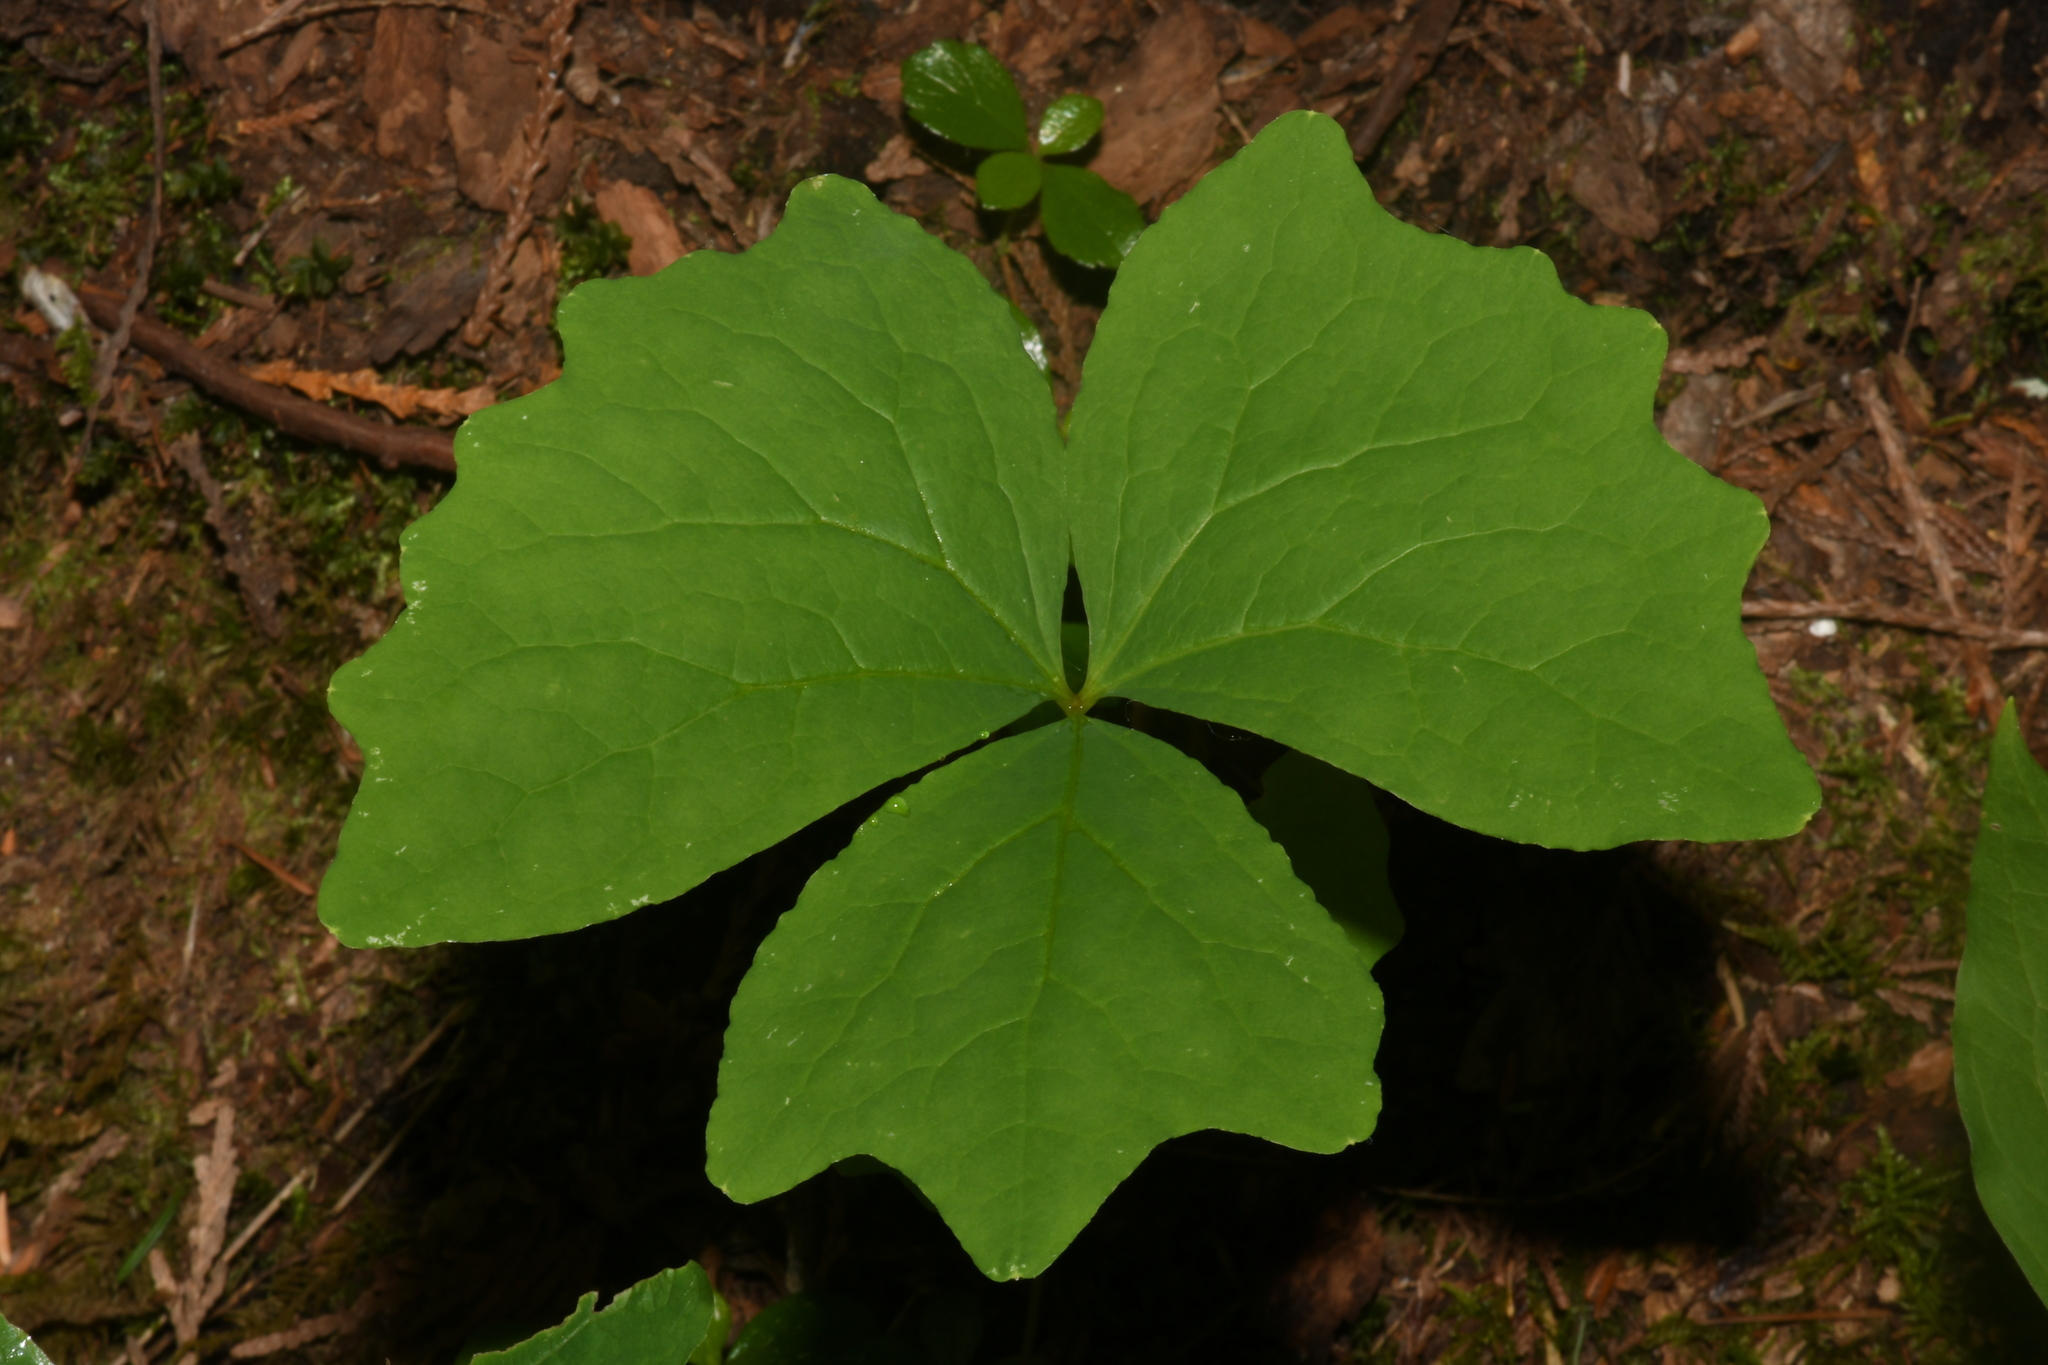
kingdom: Plantae
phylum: Tracheophyta
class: Magnoliopsida
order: Ranunculales
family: Berberidaceae
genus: Achlys
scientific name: Achlys triphylla
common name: Vanilla-leaf
